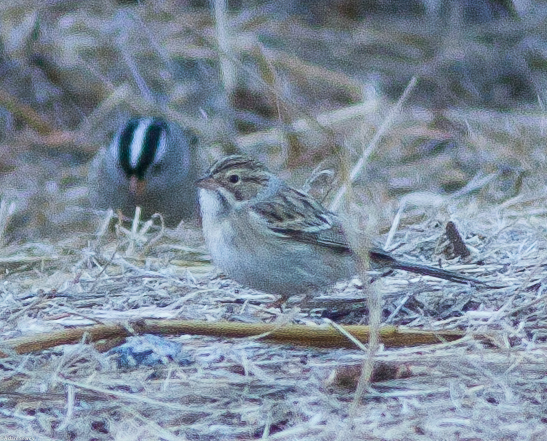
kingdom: Animalia
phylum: Chordata
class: Aves
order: Passeriformes
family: Passerellidae
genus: Spizella
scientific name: Spizella pallida
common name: Clay-colored sparrow
